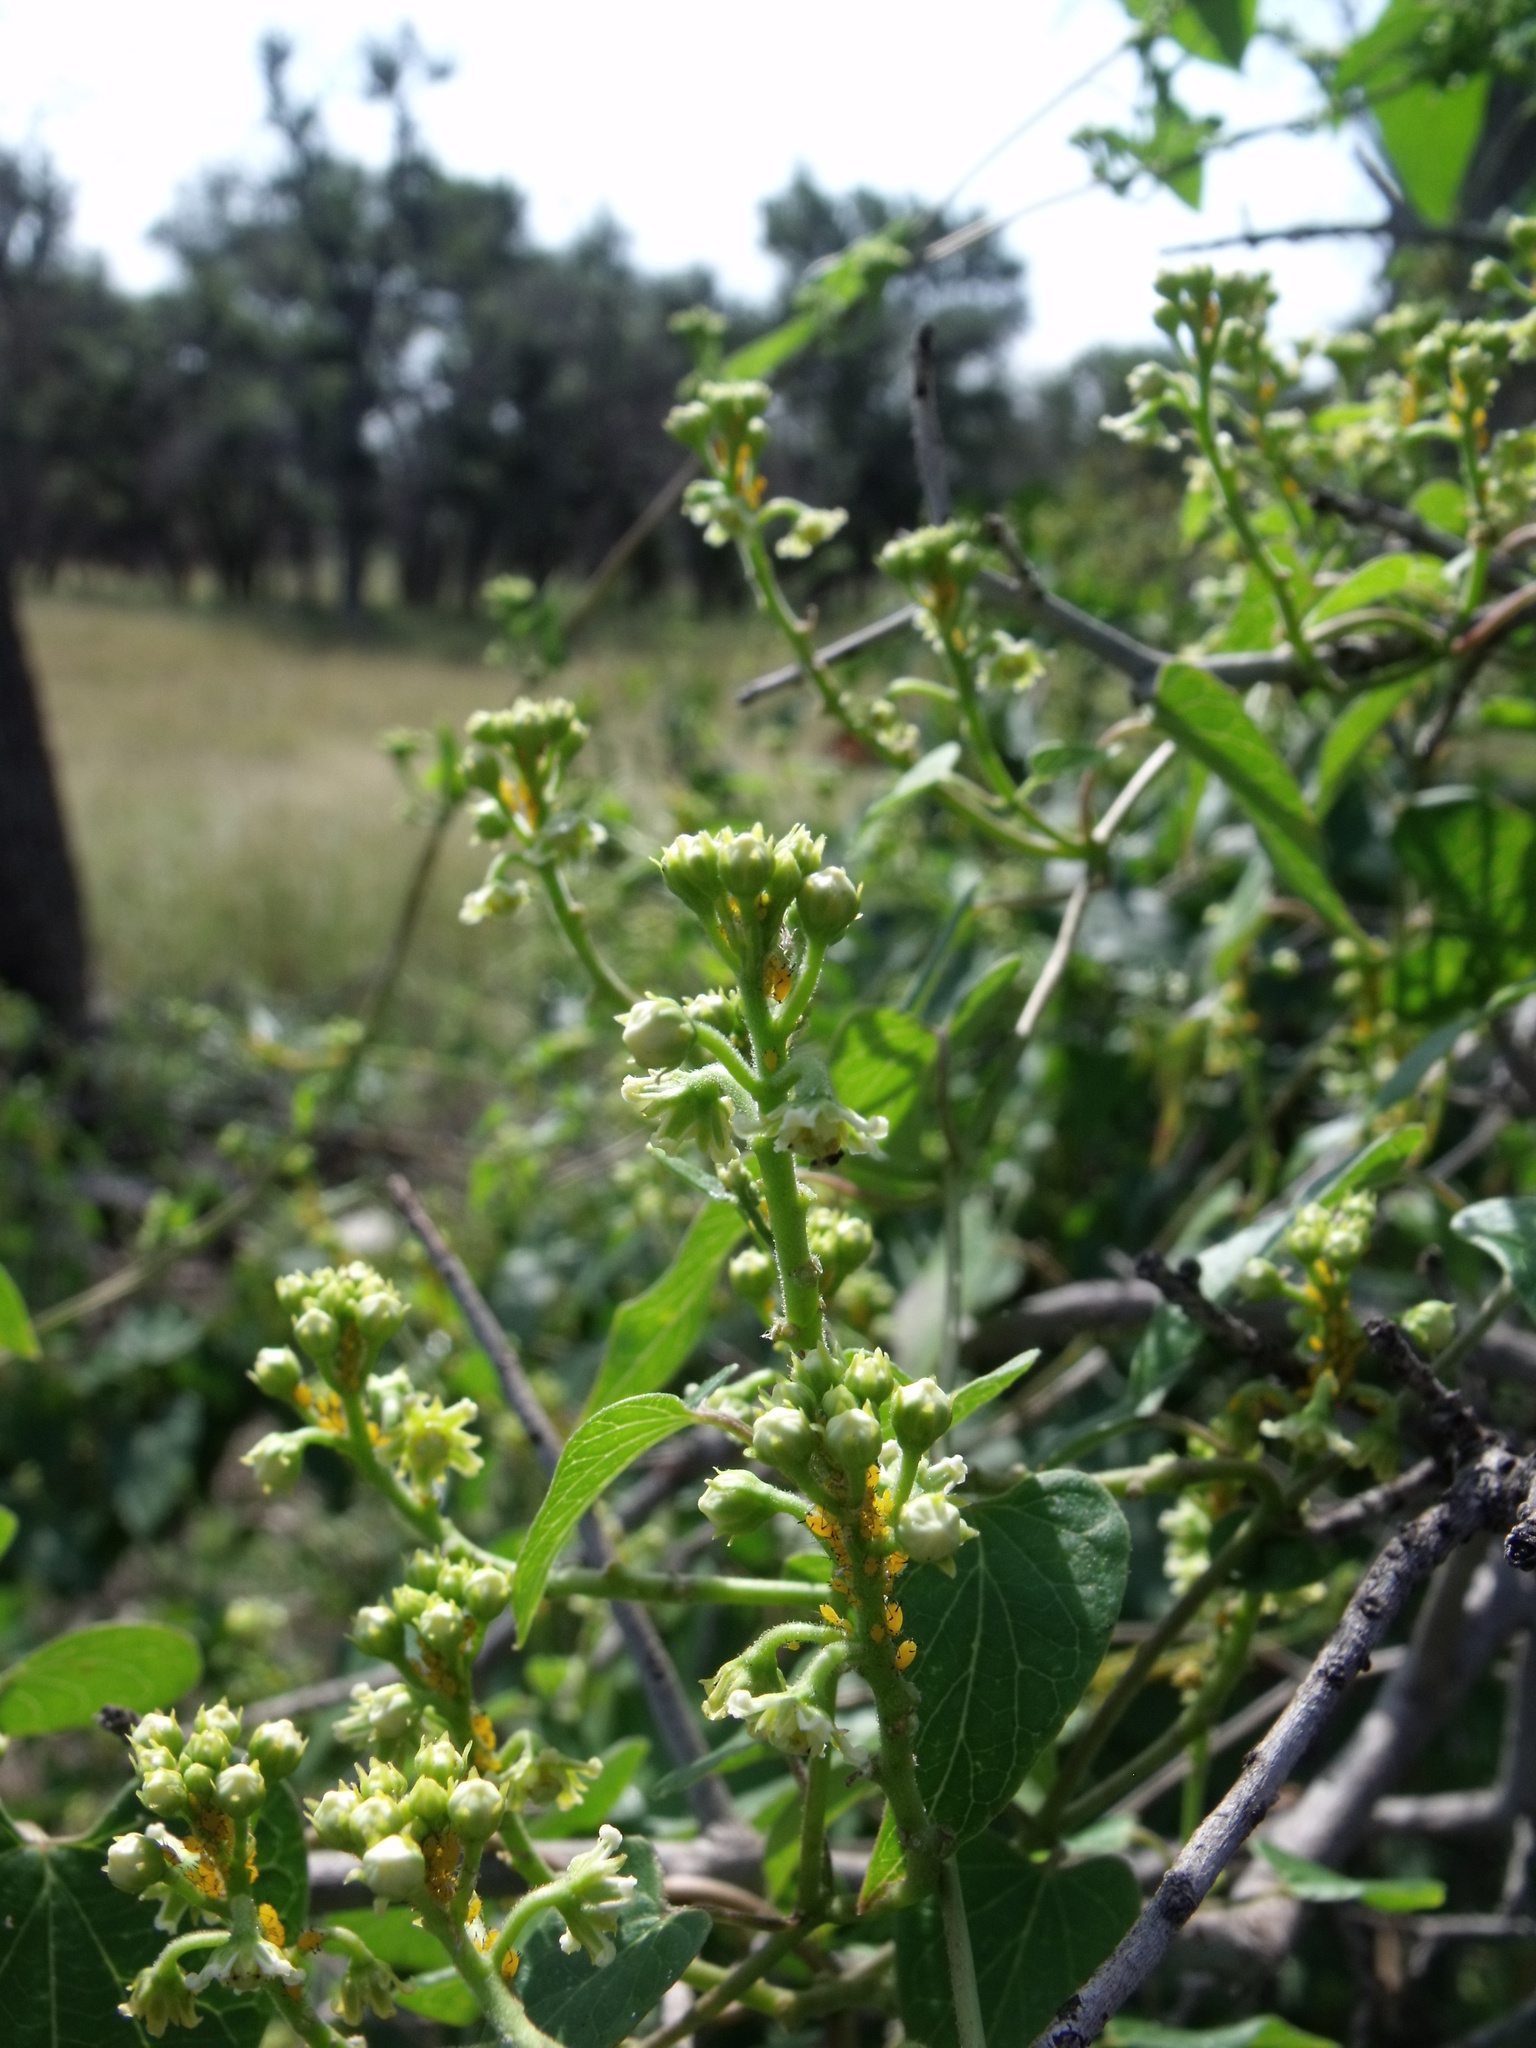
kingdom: Plantae
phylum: Tracheophyta
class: Magnoliopsida
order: Gentianales
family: Apocynaceae
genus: Cynanchum
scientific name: Cynanchum racemosum
